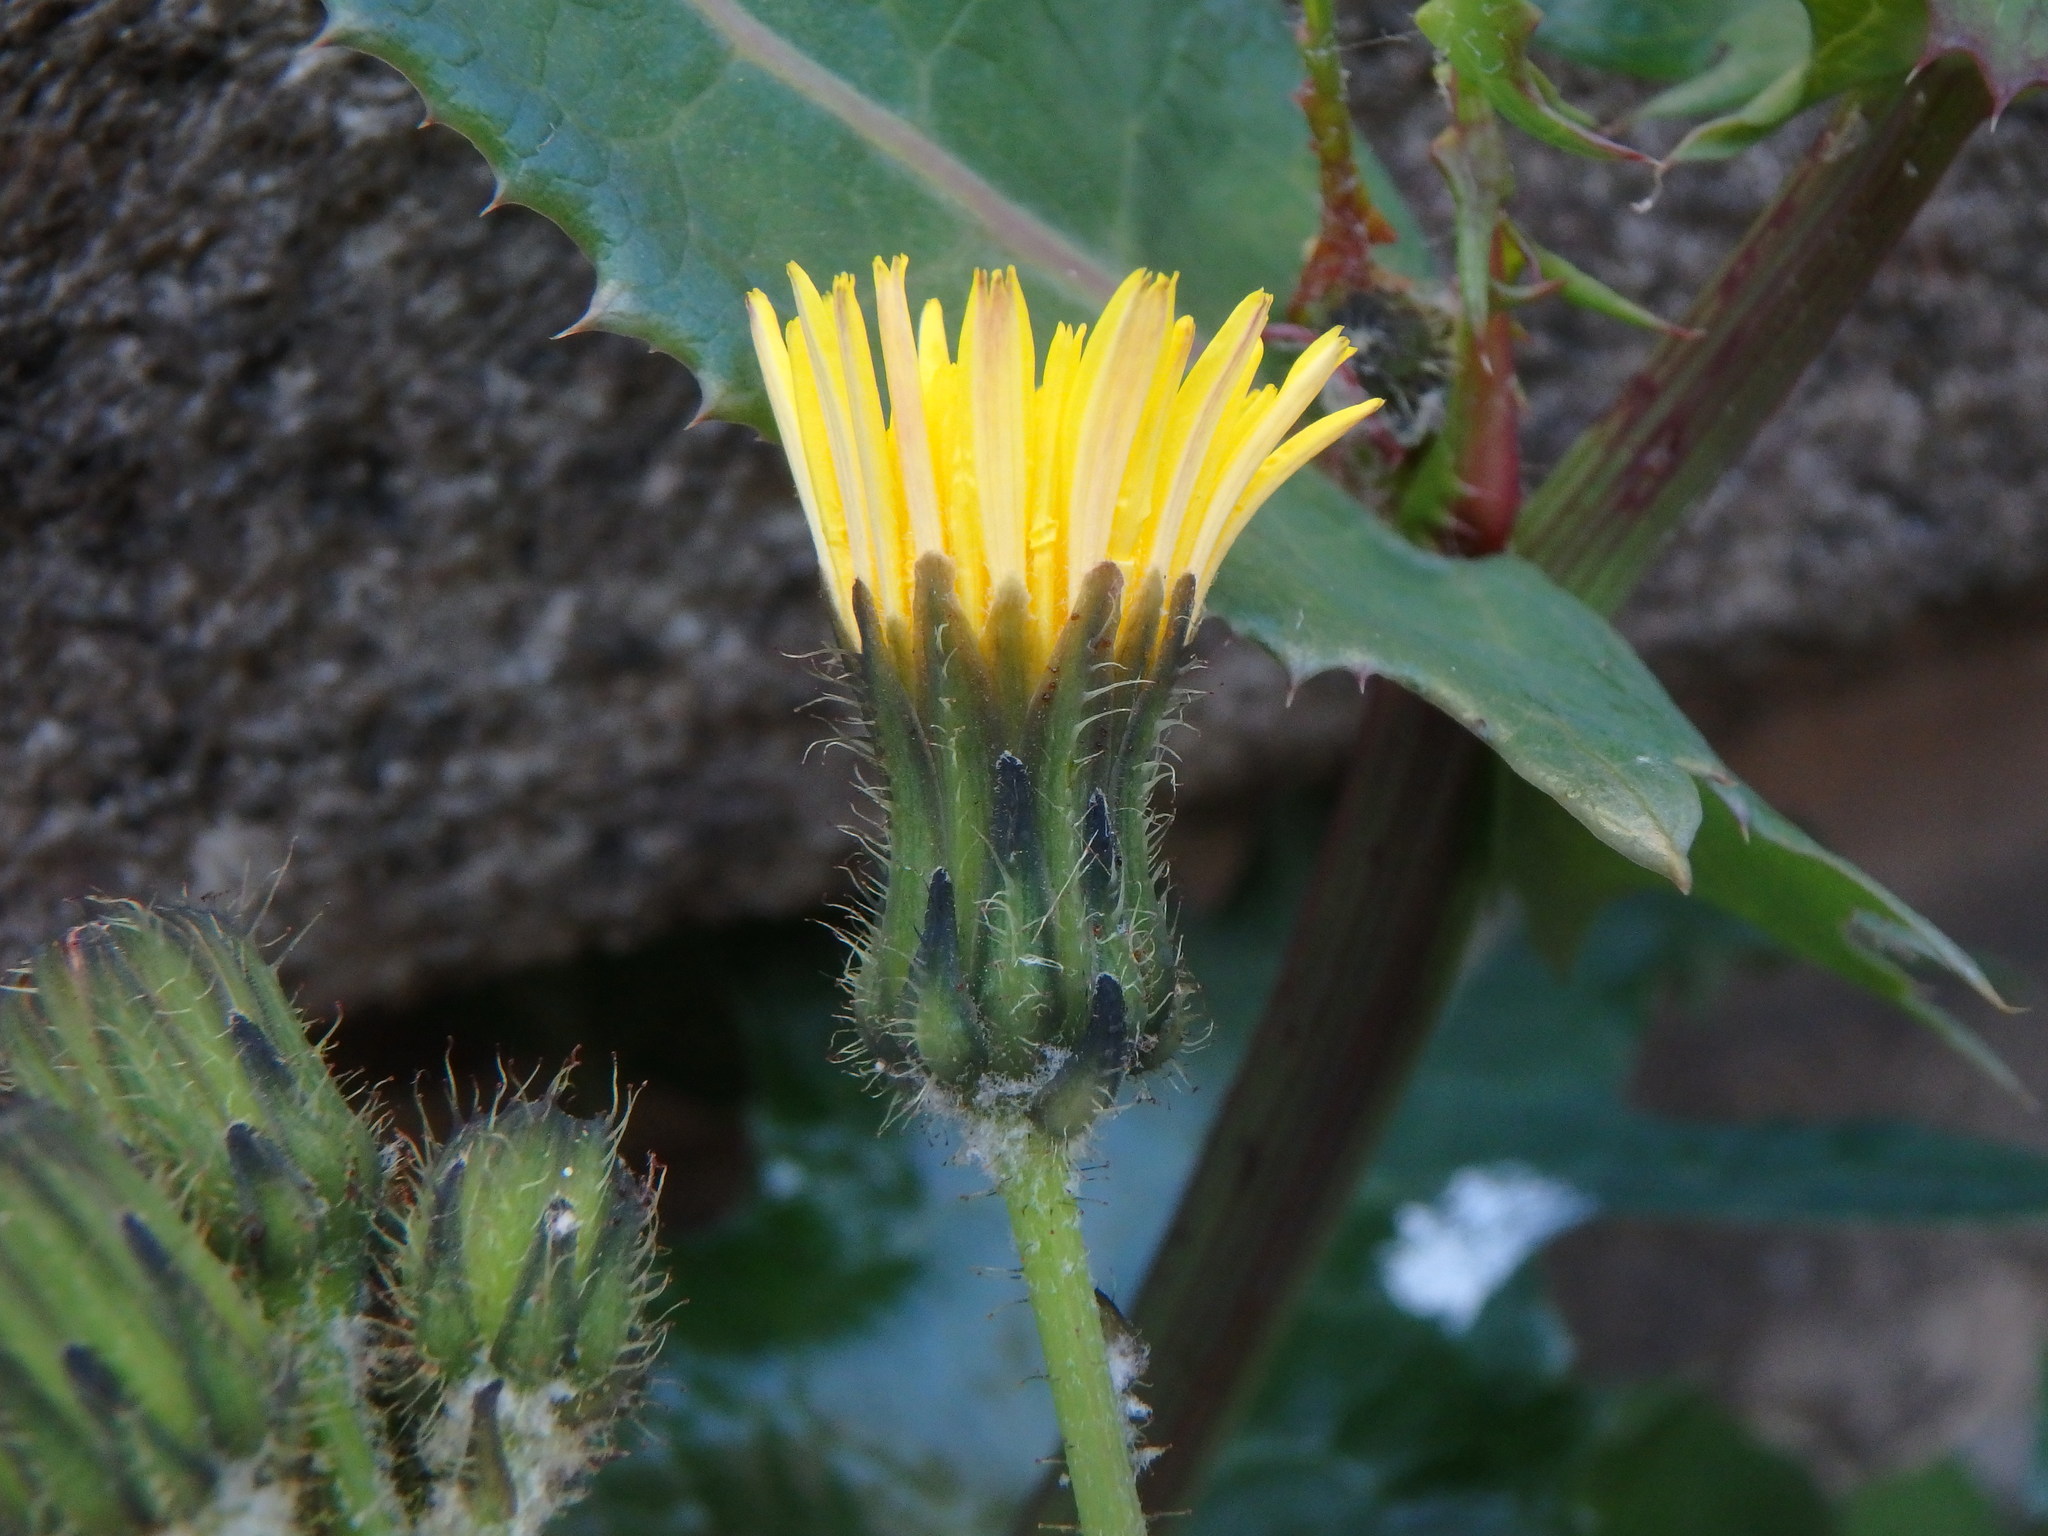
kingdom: Plantae
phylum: Tracheophyta
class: Magnoliopsida
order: Asterales
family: Asteraceae
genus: Sonchus
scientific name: Sonchus oleraceus
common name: Common sowthistle
